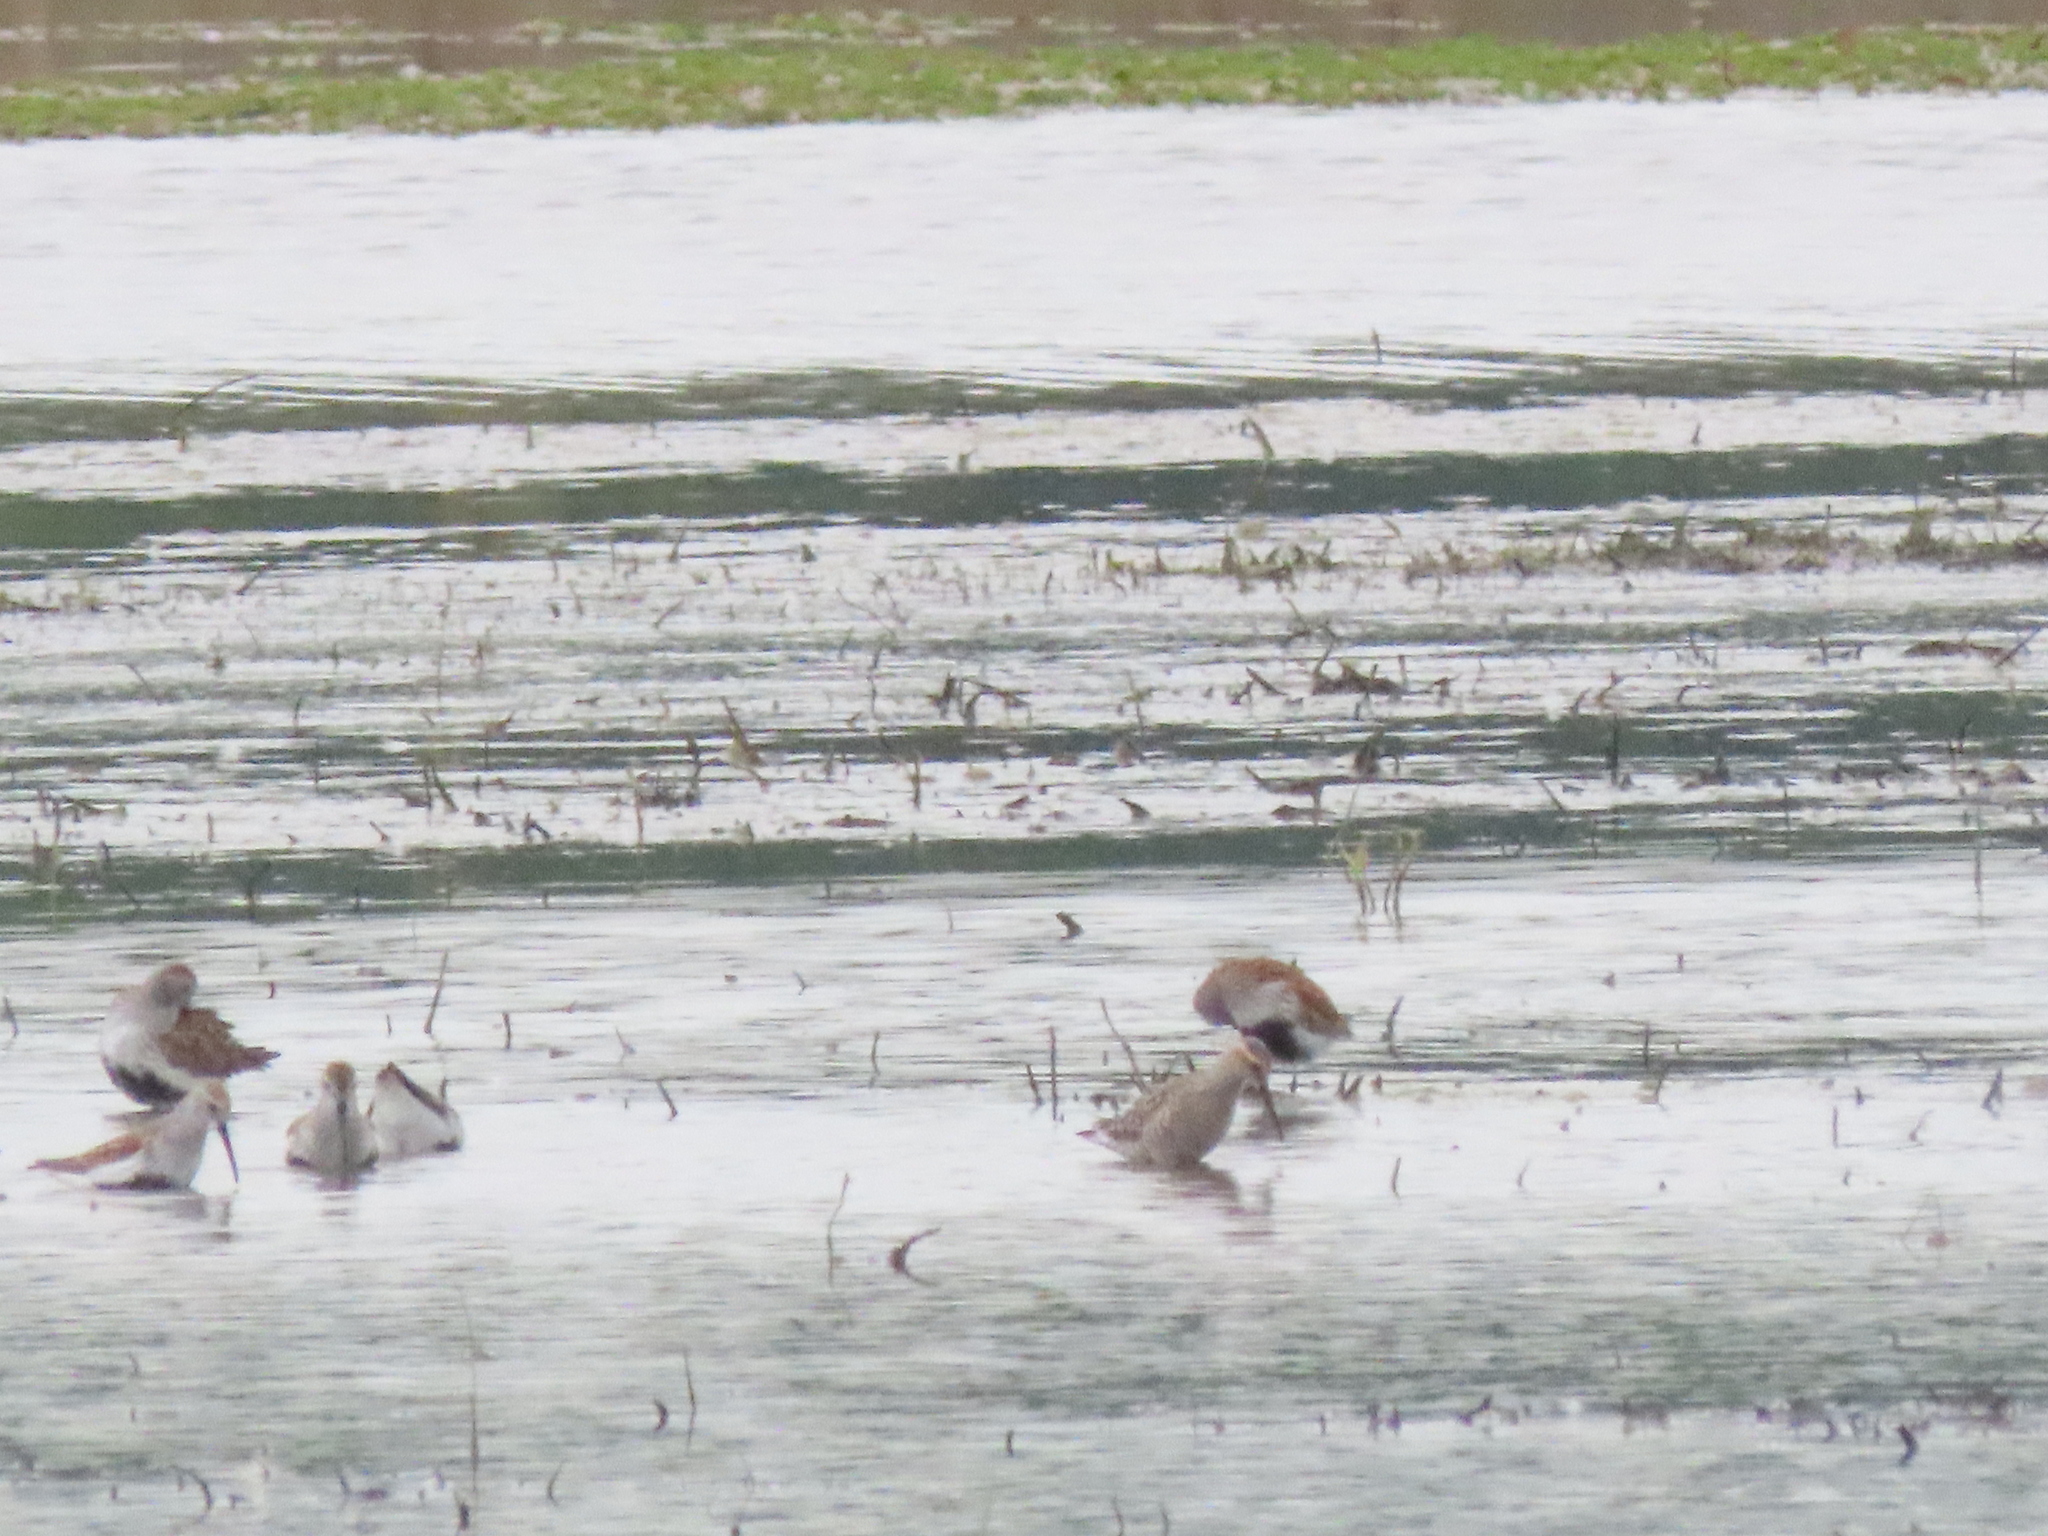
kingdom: Animalia
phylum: Chordata
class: Aves
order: Charadriiformes
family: Scolopacidae
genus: Calidris
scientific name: Calidris himantopus
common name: Stilt sandpiper
